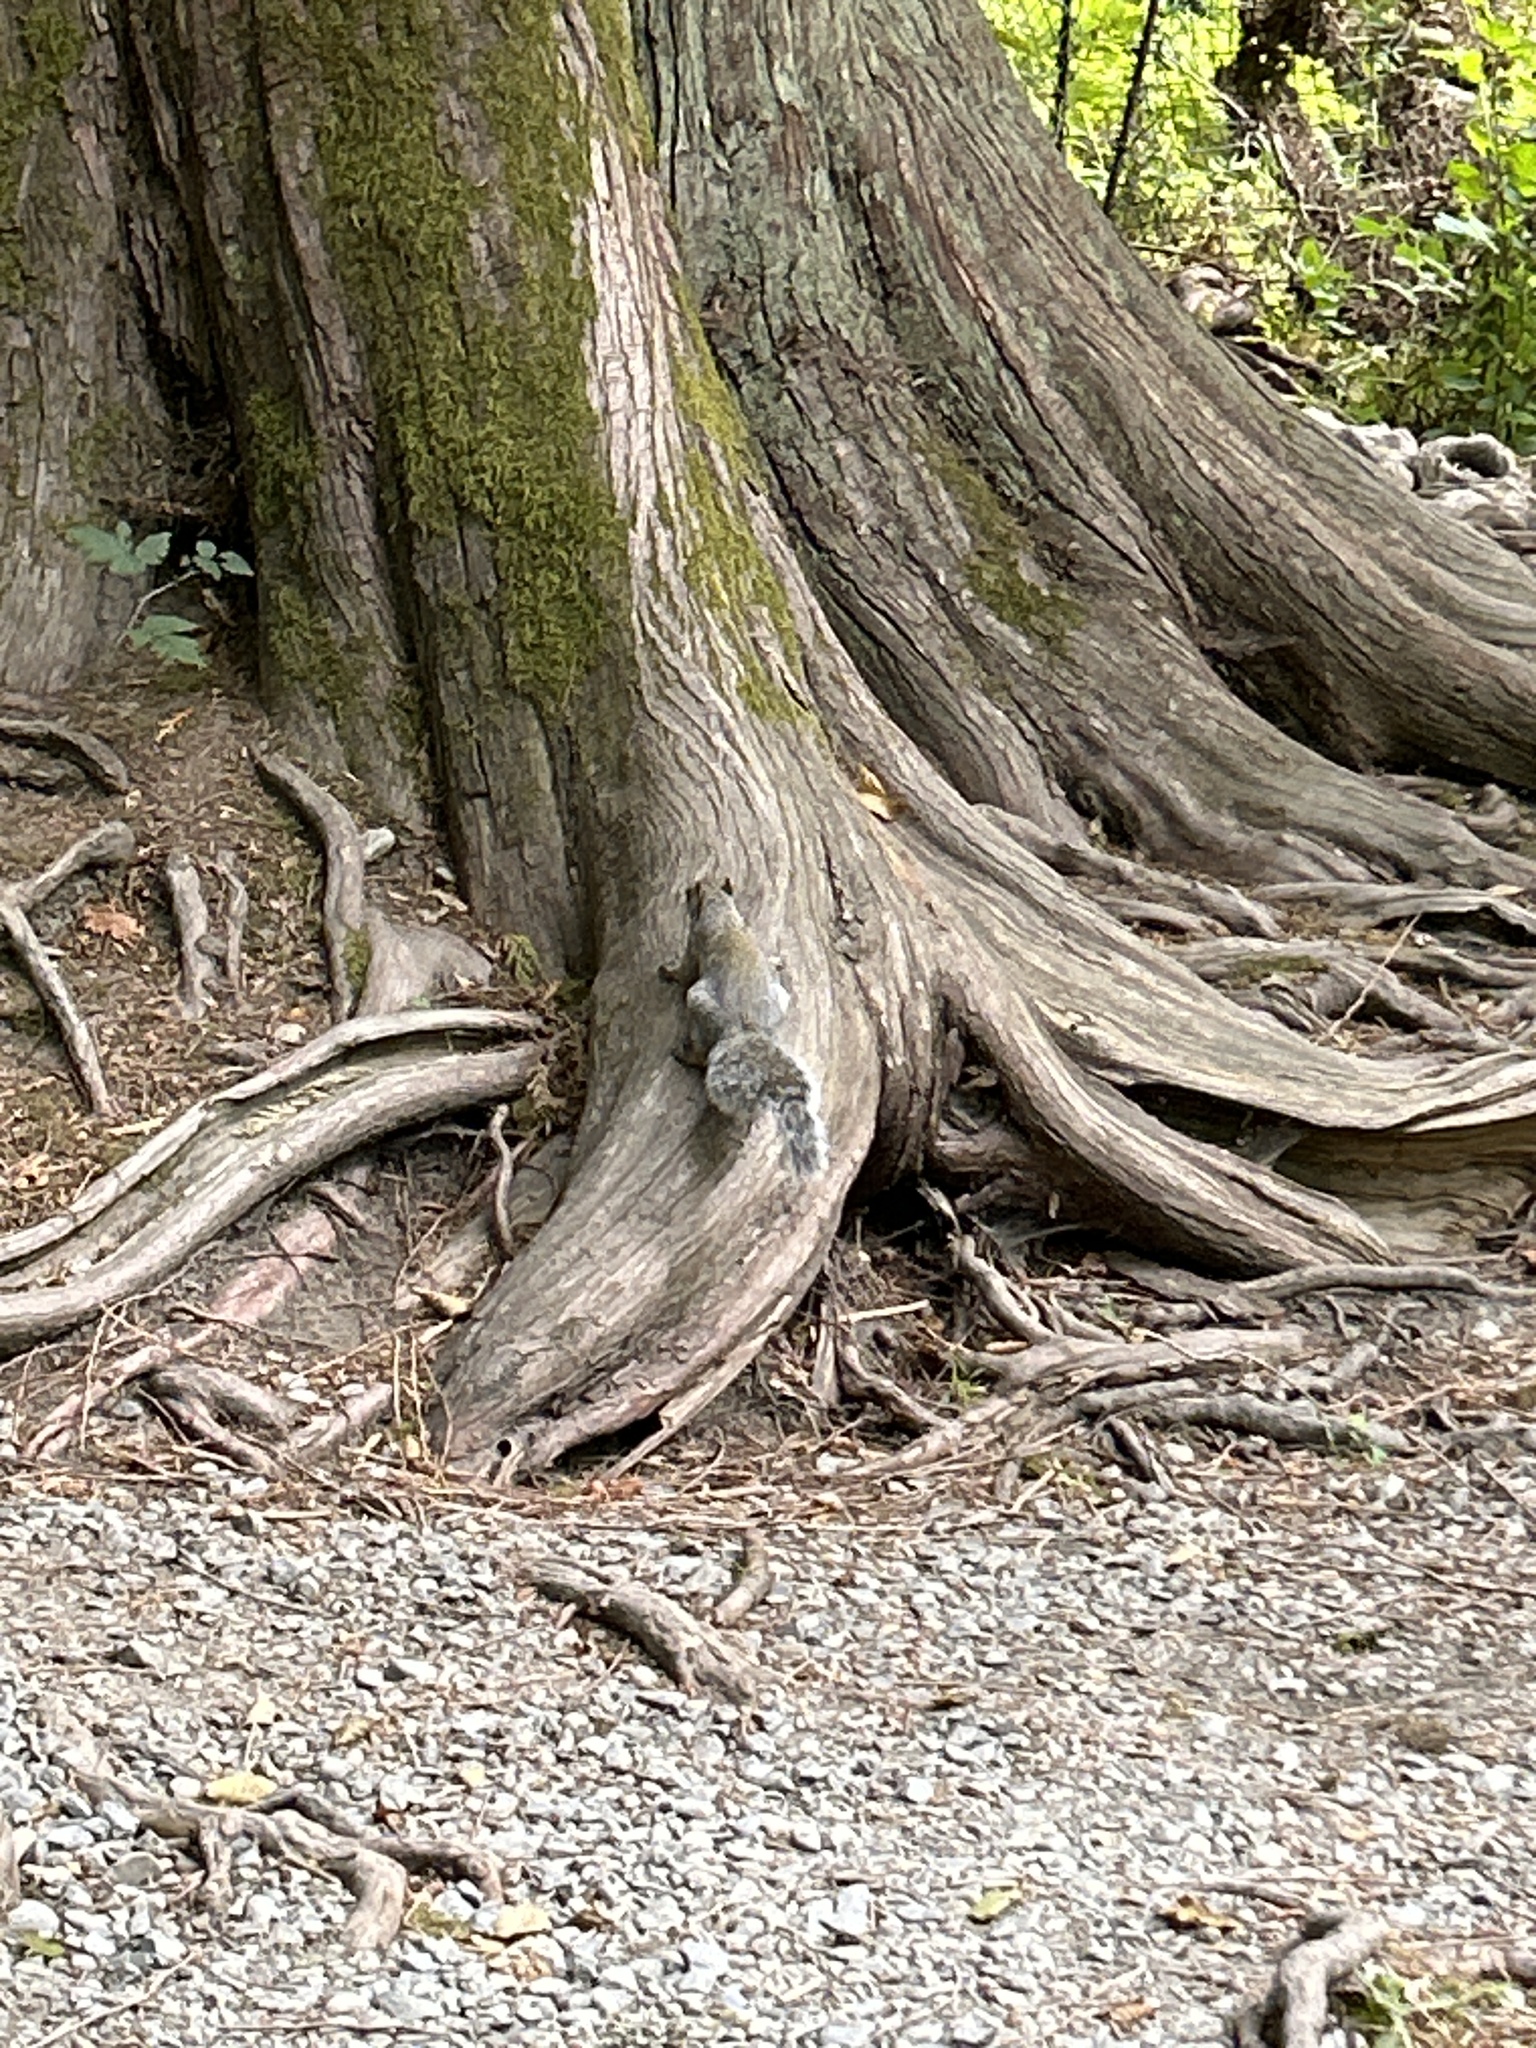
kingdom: Animalia
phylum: Chordata
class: Mammalia
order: Rodentia
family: Sciuridae
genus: Sciurus
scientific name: Sciurus carolinensis
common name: Eastern gray squirrel
